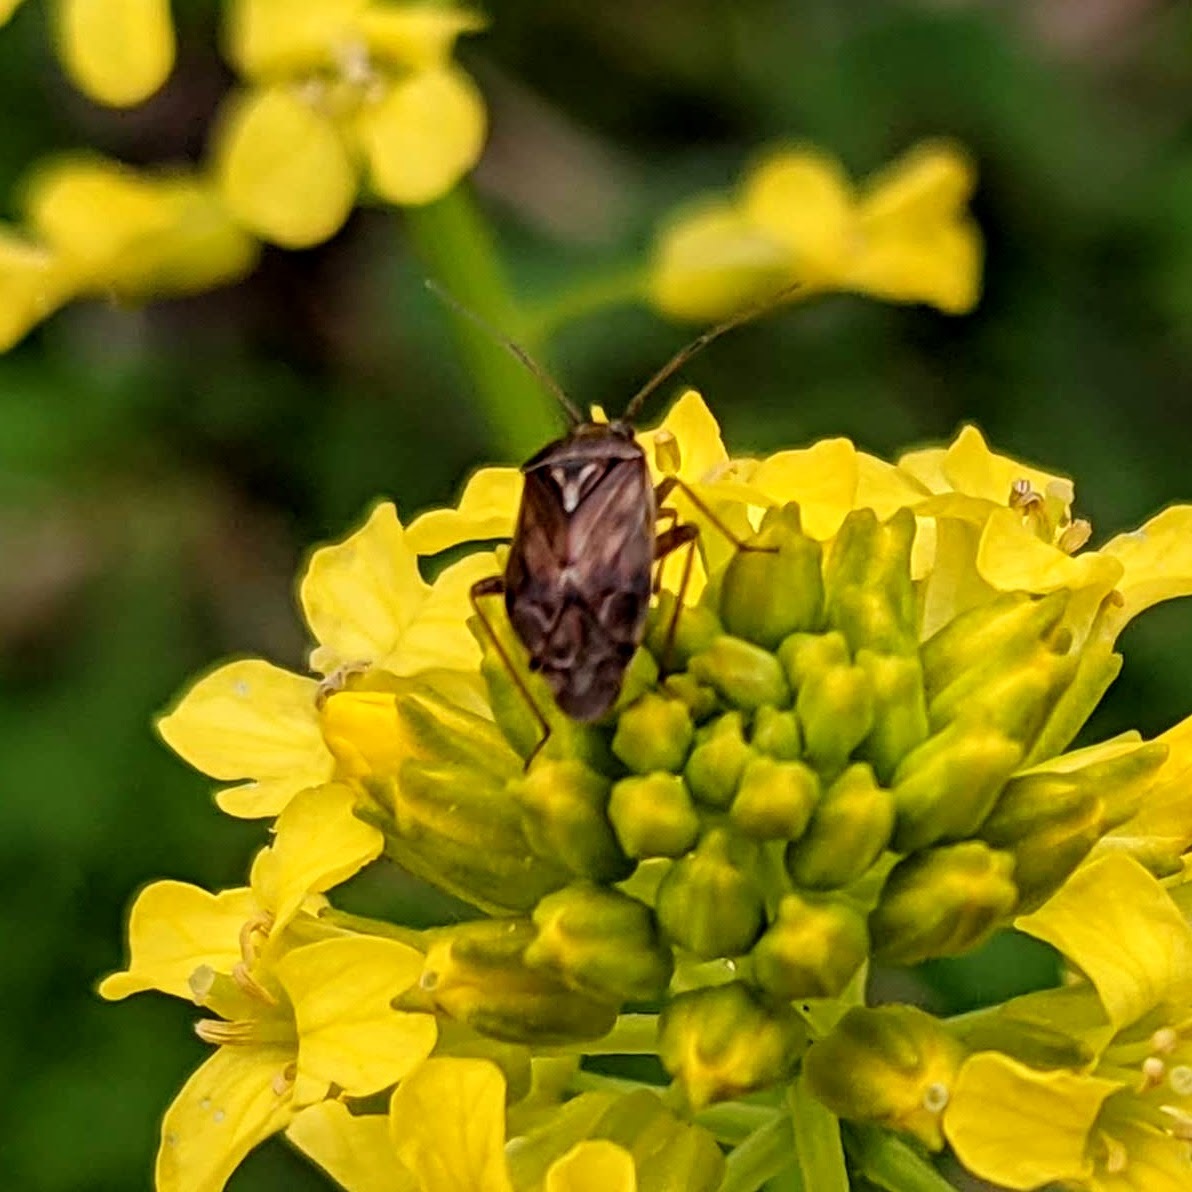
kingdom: Animalia
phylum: Arthropoda
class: Insecta
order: Hemiptera
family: Miridae
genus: Lygus
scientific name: Lygus lineolaris
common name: North american tarnished plant bug
